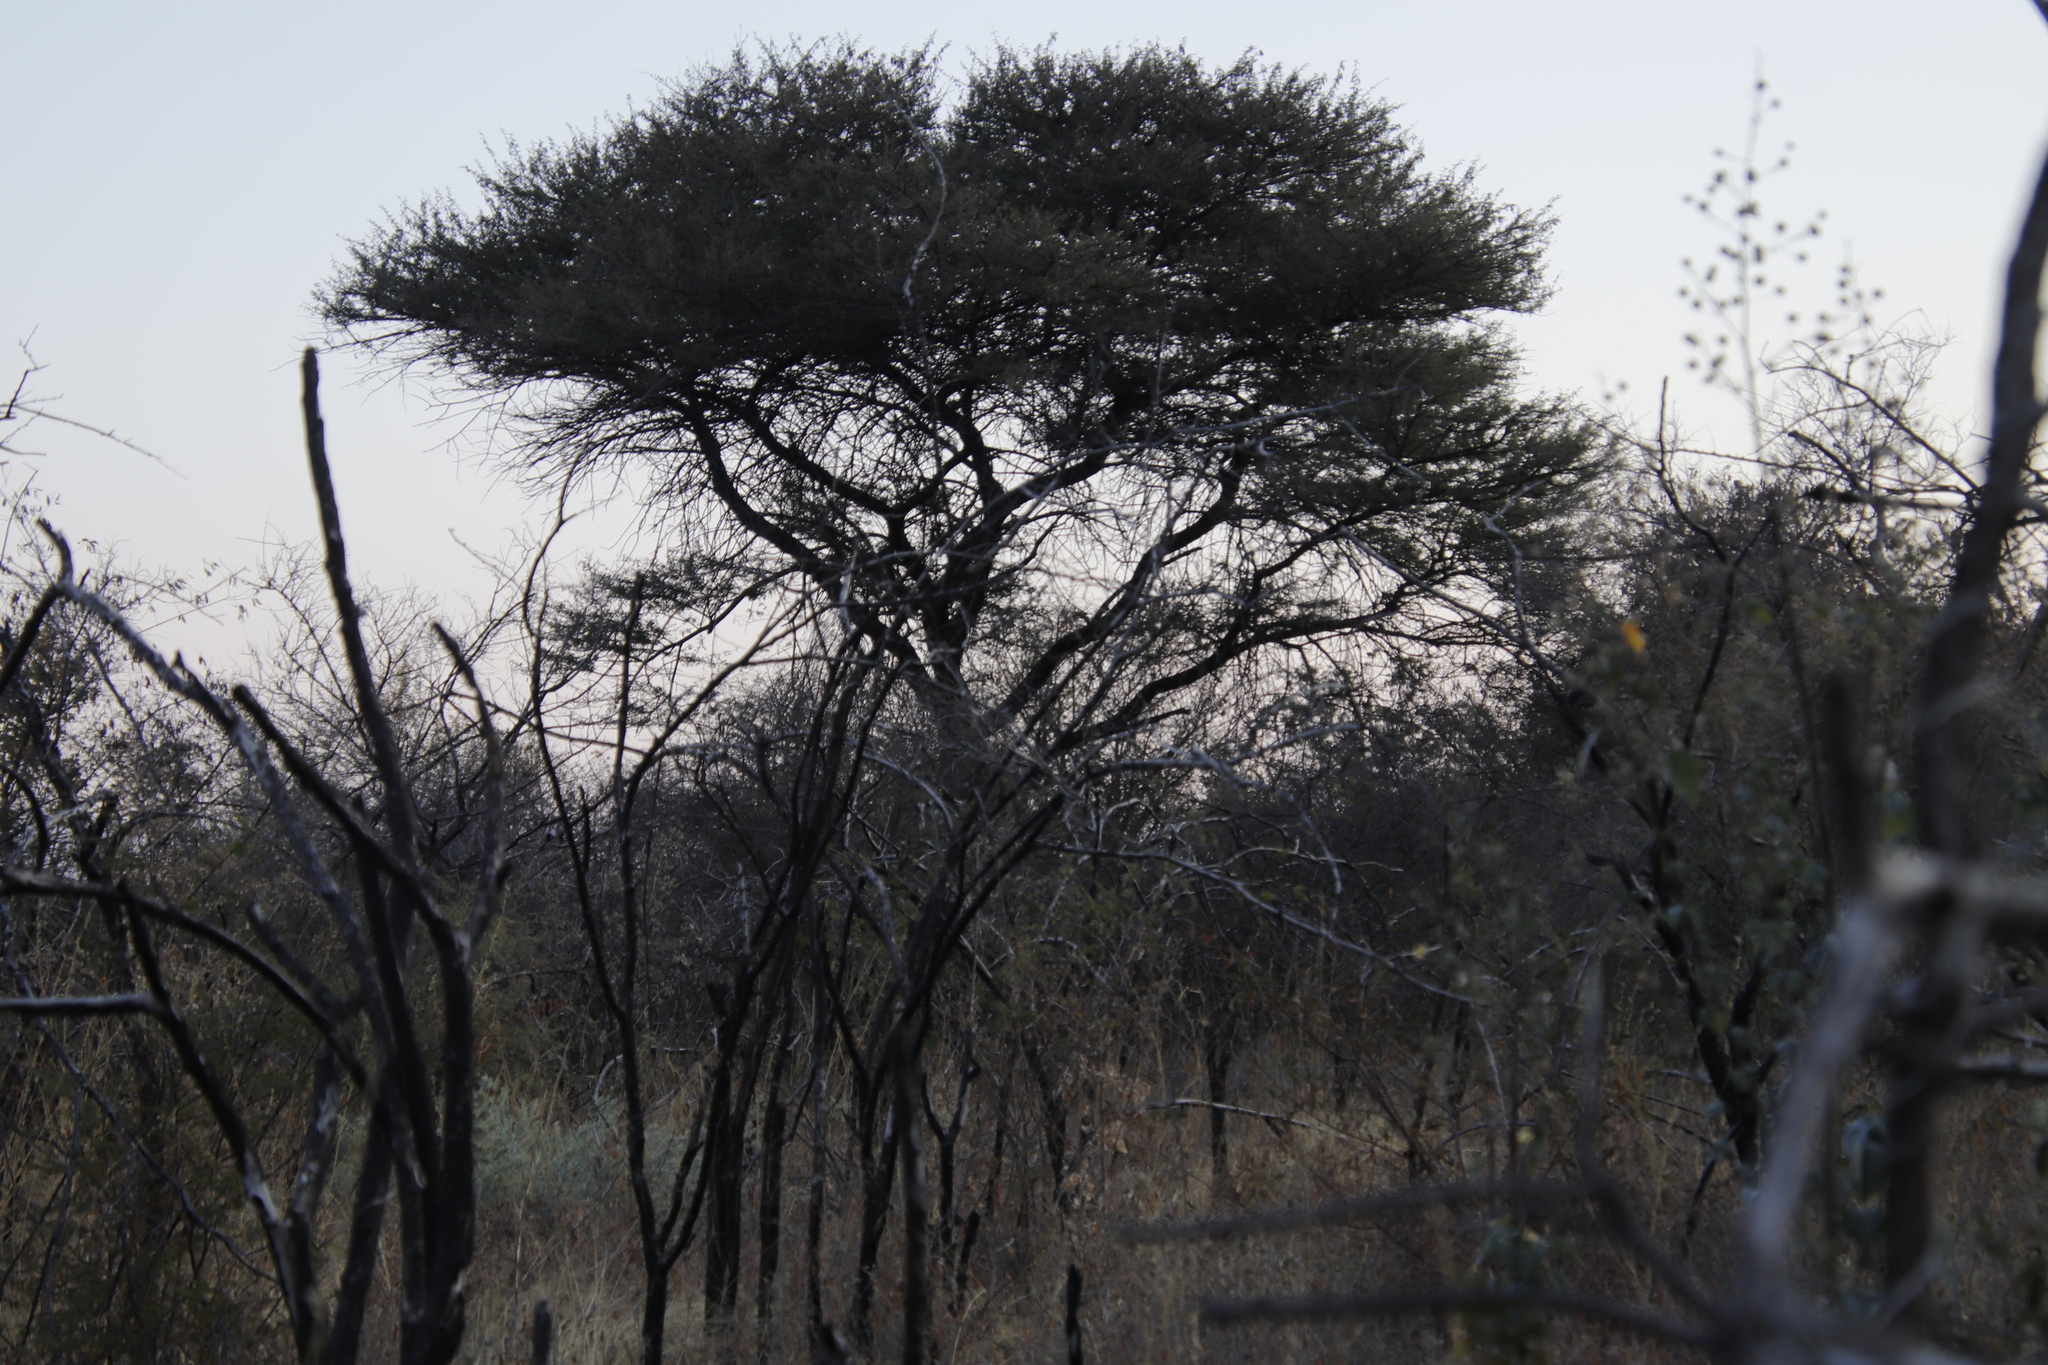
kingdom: Plantae
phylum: Tracheophyta
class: Magnoliopsida
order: Fabales
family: Fabaceae
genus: Vachellia
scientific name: Vachellia luederitzii
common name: Bastard umbrella thorn
